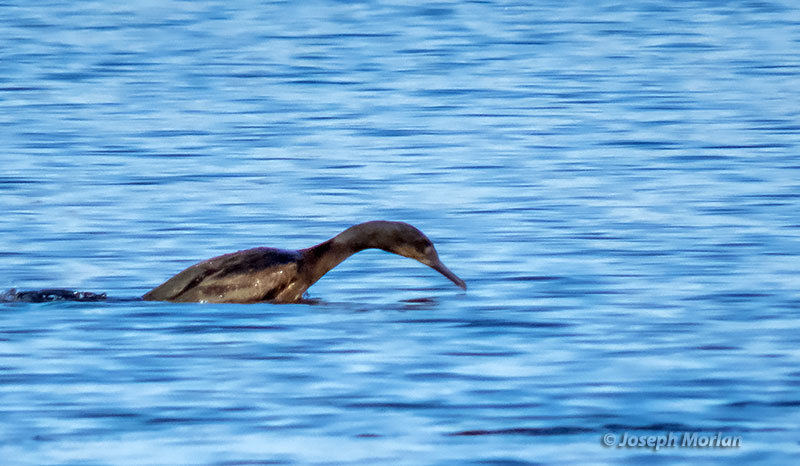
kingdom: Animalia
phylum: Chordata
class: Aves
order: Suliformes
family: Phalacrocoracidae
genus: Urile
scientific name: Urile penicillatus
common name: Brandt's cormorant
